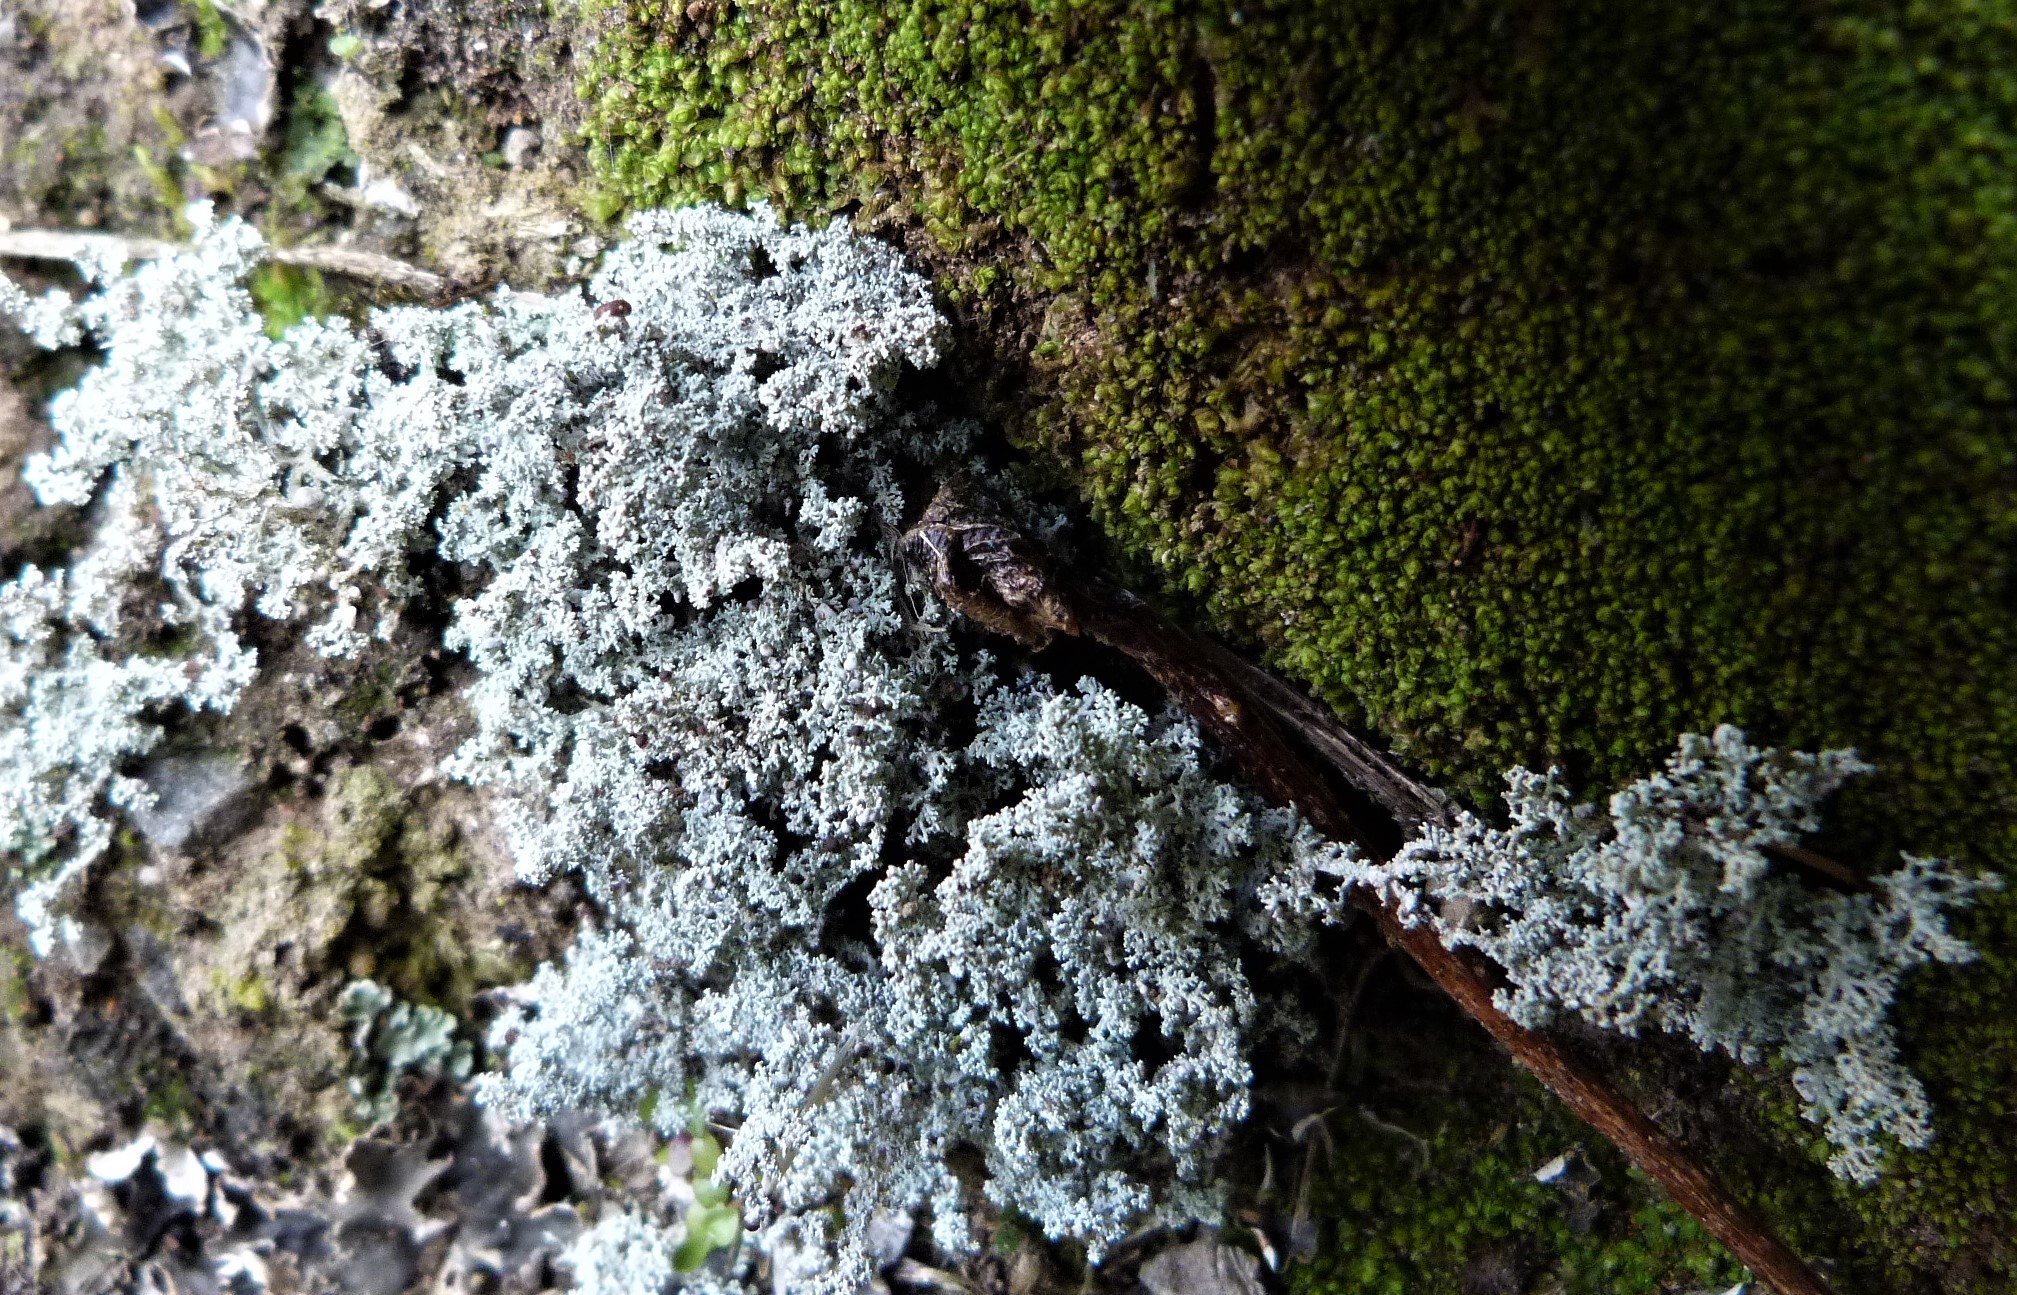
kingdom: Fungi
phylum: Ascomycota
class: Lecanoromycetes
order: Lecanorales
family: Stereocaulaceae
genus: Stereocaulon
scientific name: Stereocaulon corticatulum
